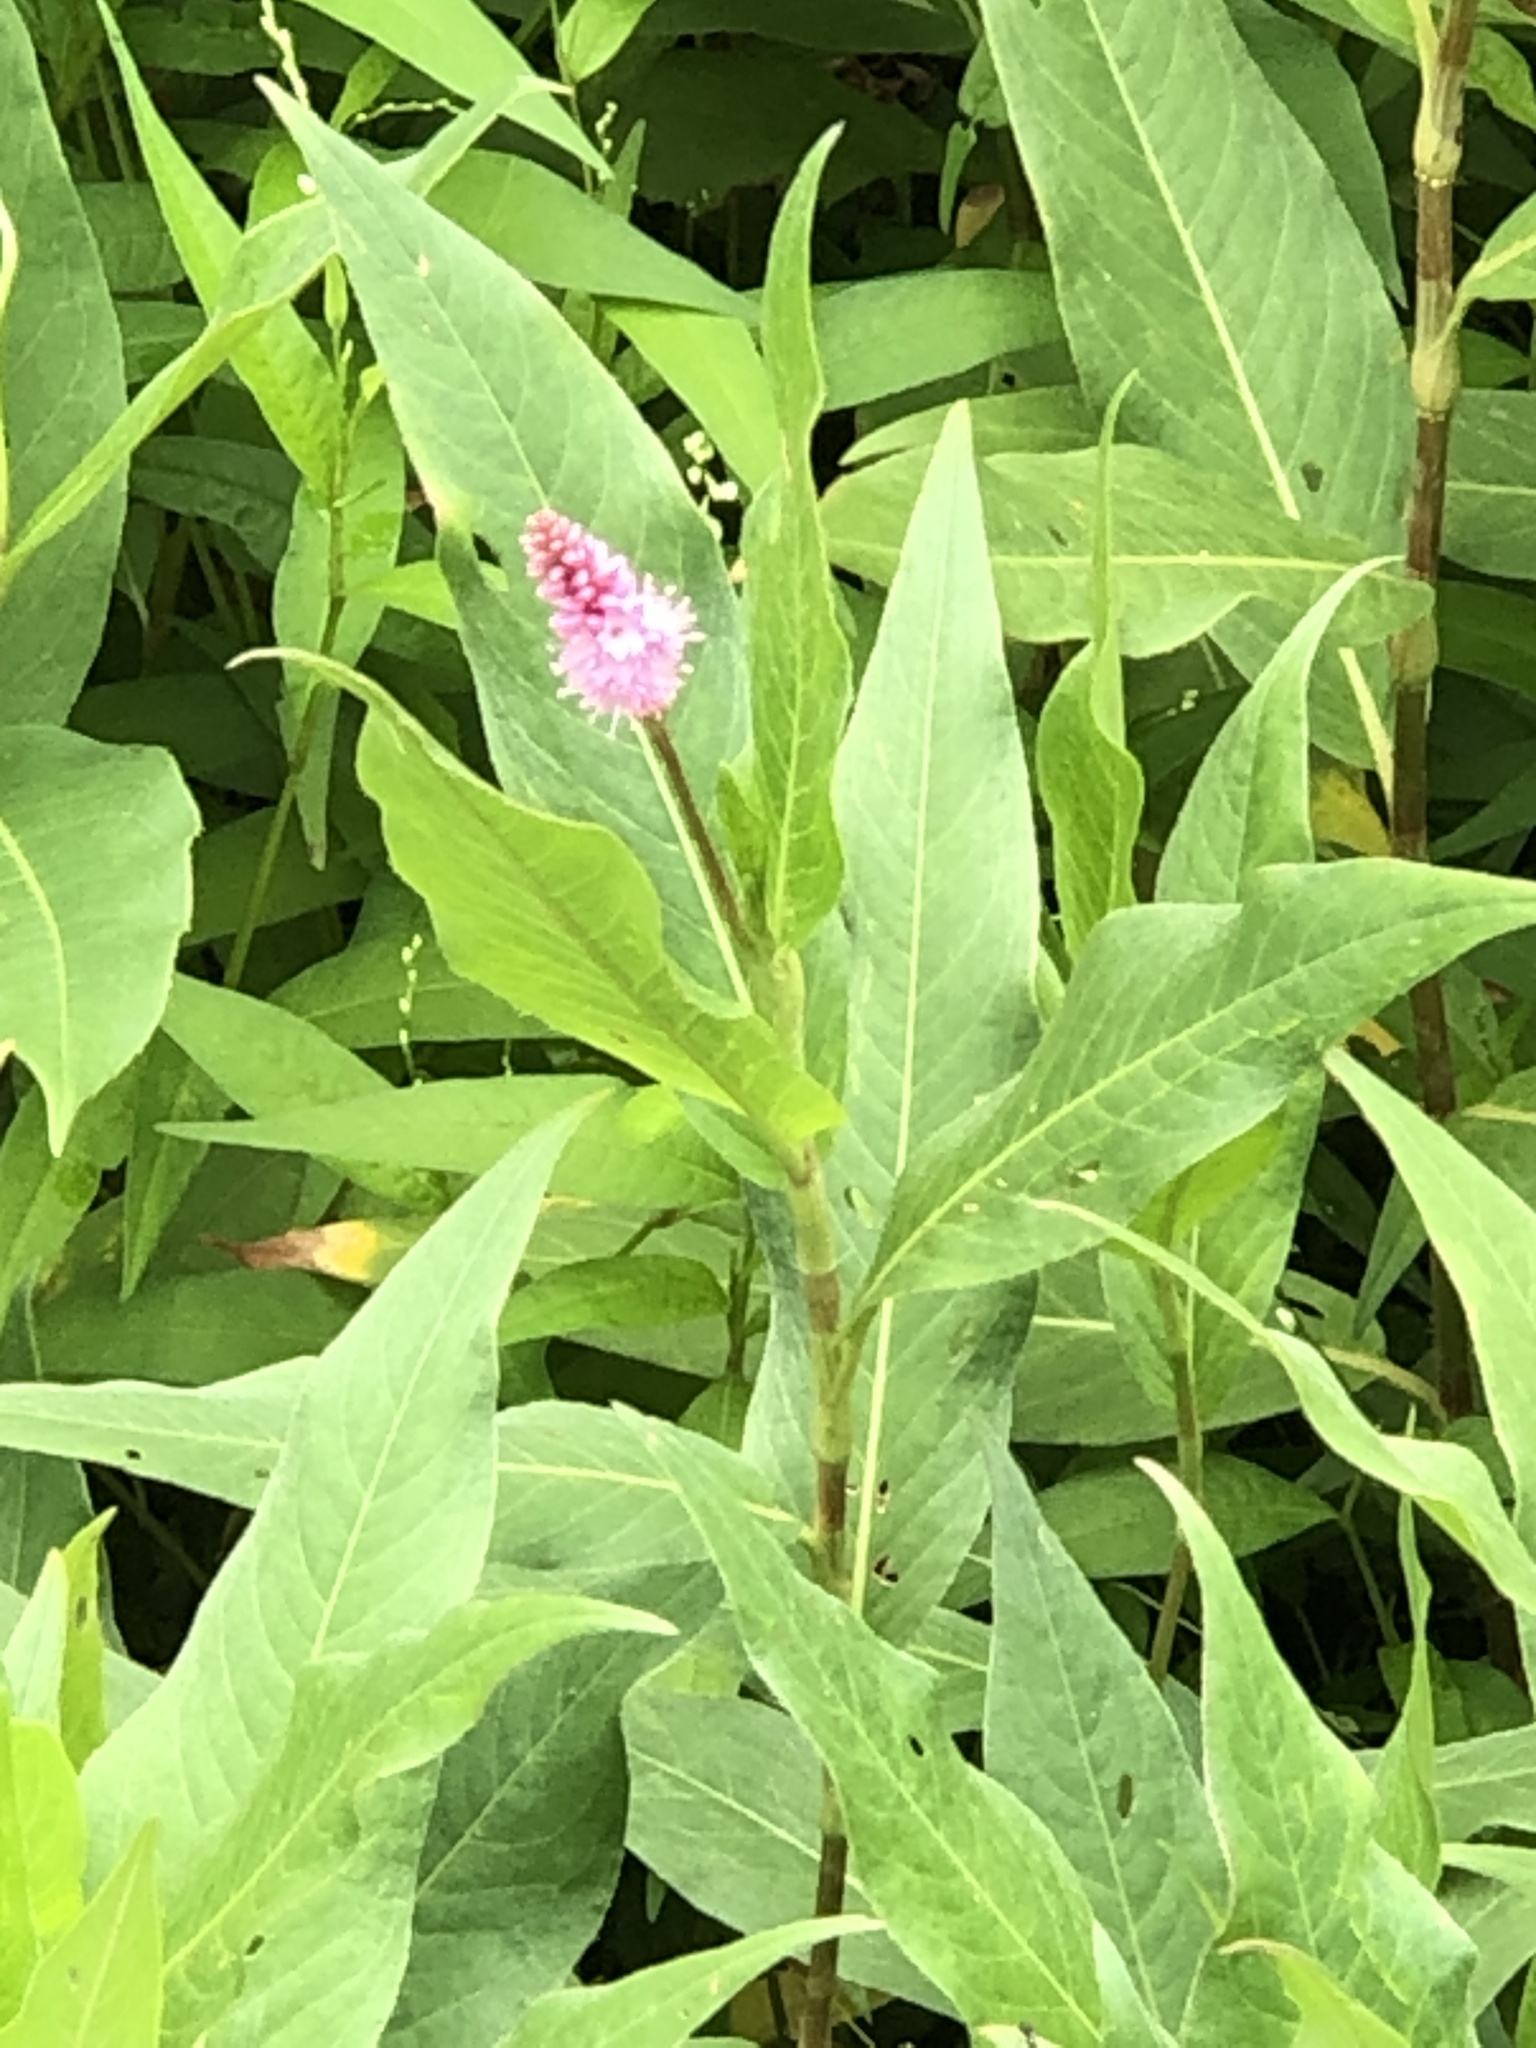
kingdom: Plantae
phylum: Tracheophyta
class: Magnoliopsida
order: Caryophyllales
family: Polygonaceae
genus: Persicaria
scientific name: Persicaria amphibia
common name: Amphibious bistort
